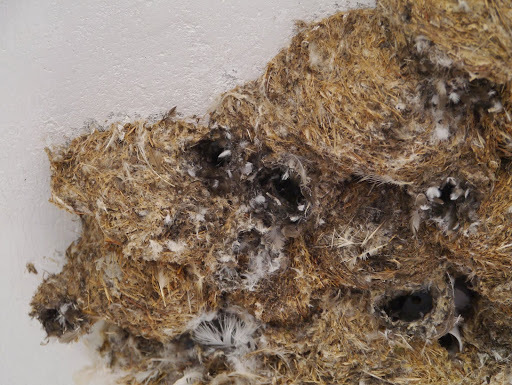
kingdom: Animalia
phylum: Chordata
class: Aves
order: Apodiformes
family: Apodidae
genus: Apus
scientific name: Apus affinis
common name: Little swift
